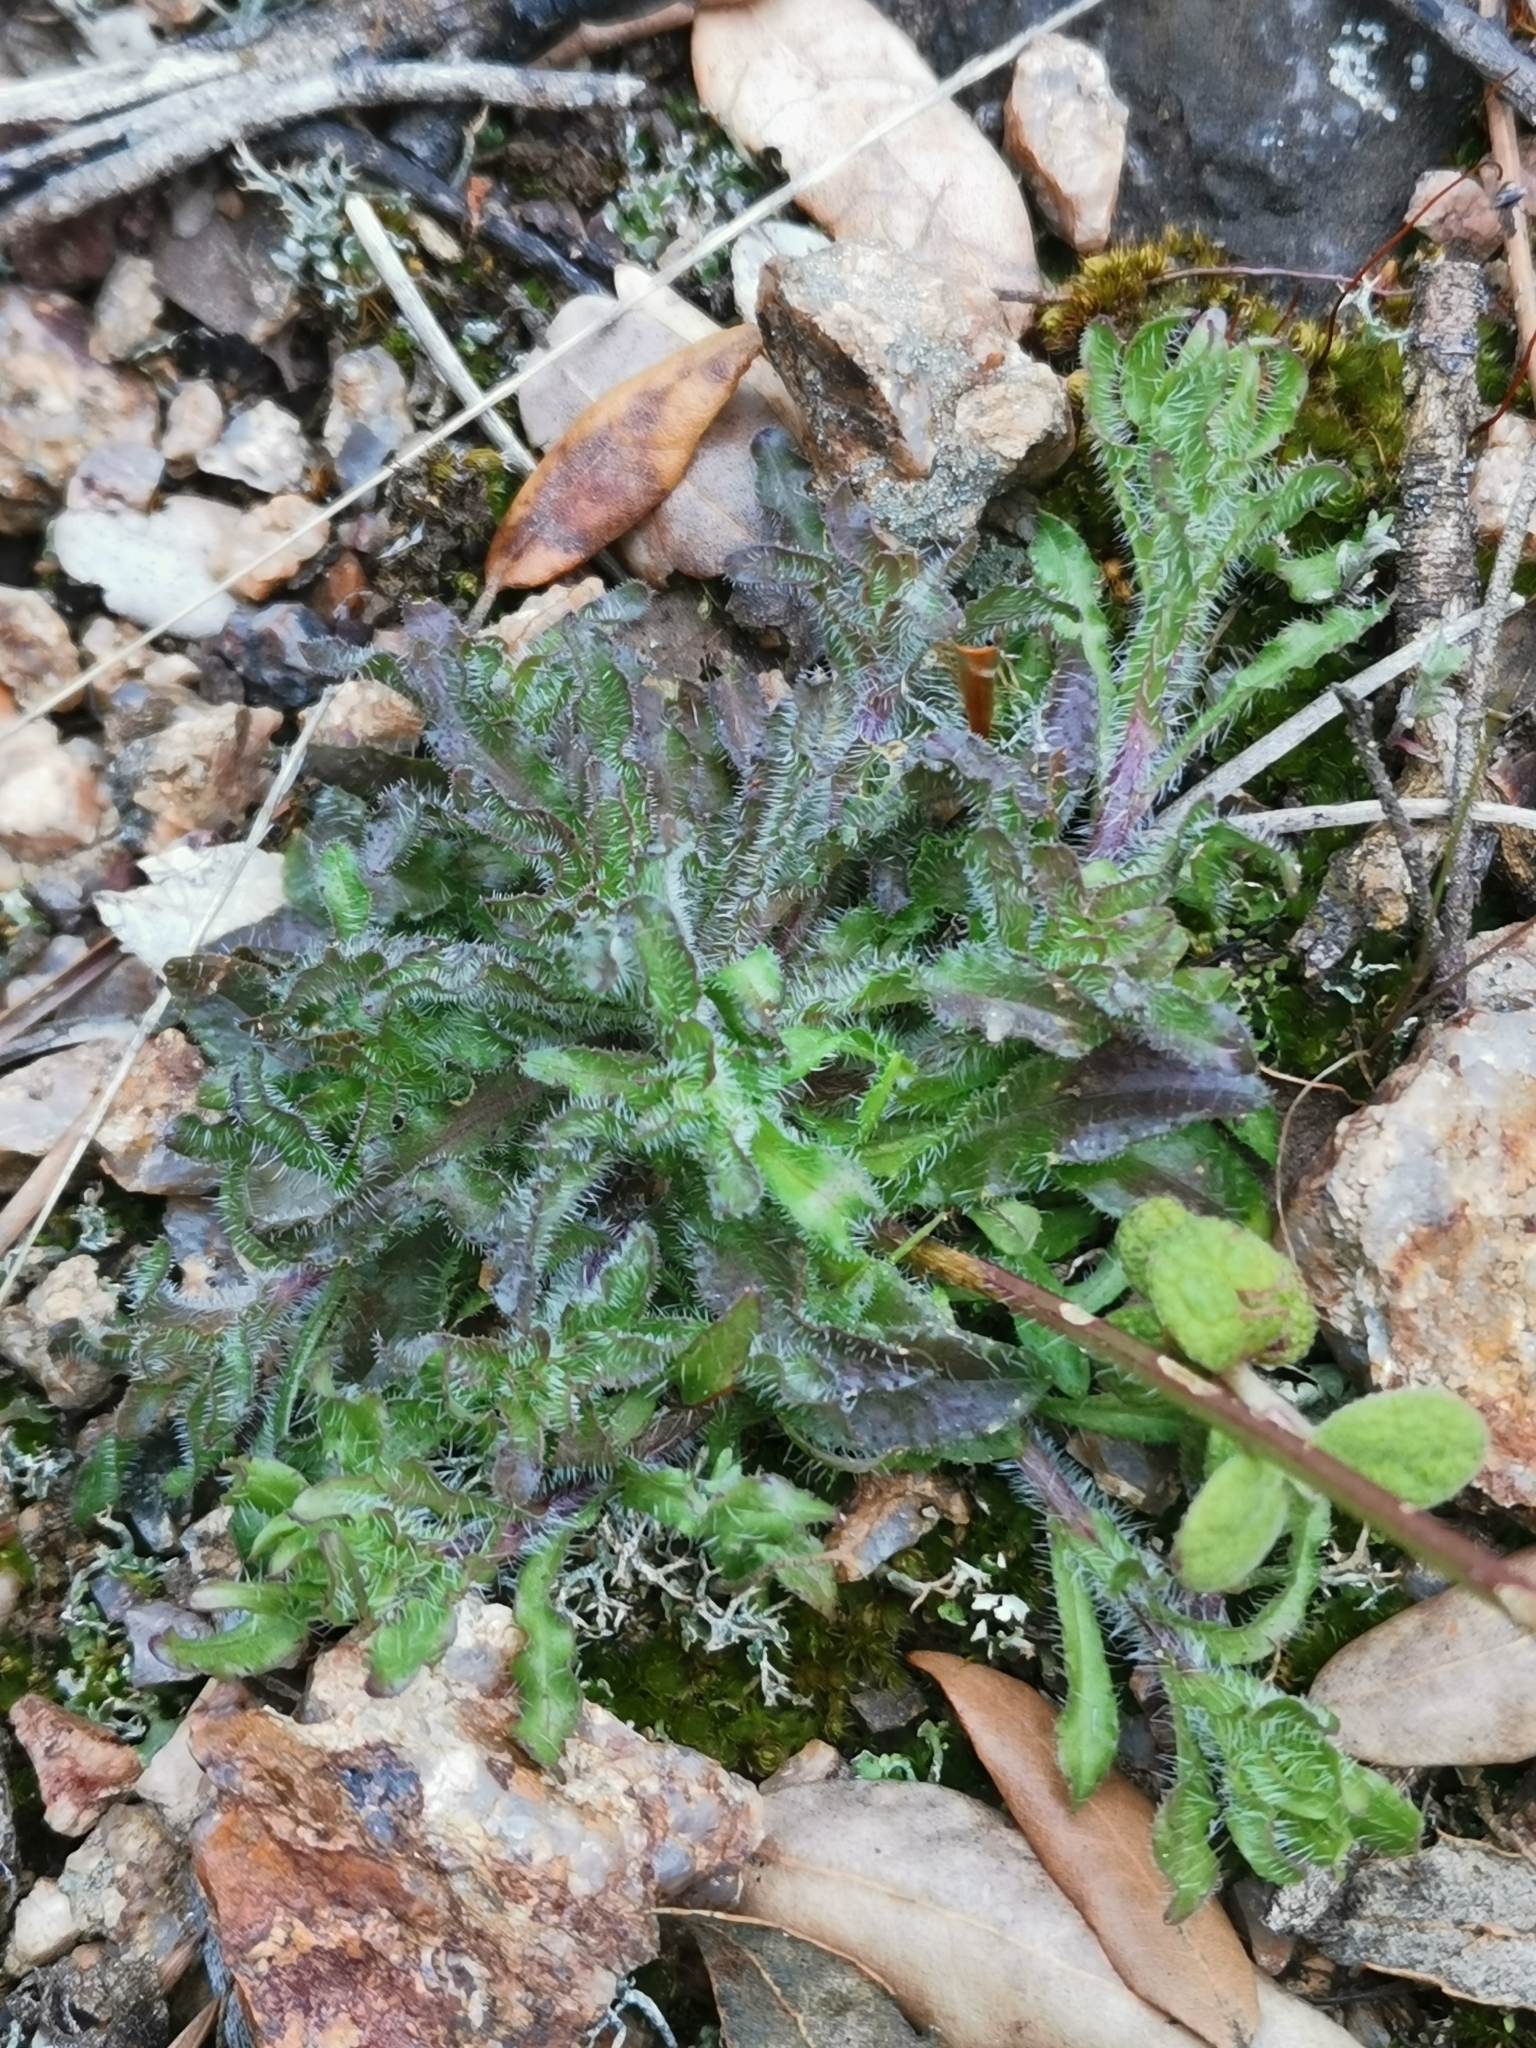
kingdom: Plantae
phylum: Tracheophyta
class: Magnoliopsida
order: Asterales
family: Campanulaceae
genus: Jasione
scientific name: Jasione montana
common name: Sheep's-bit
